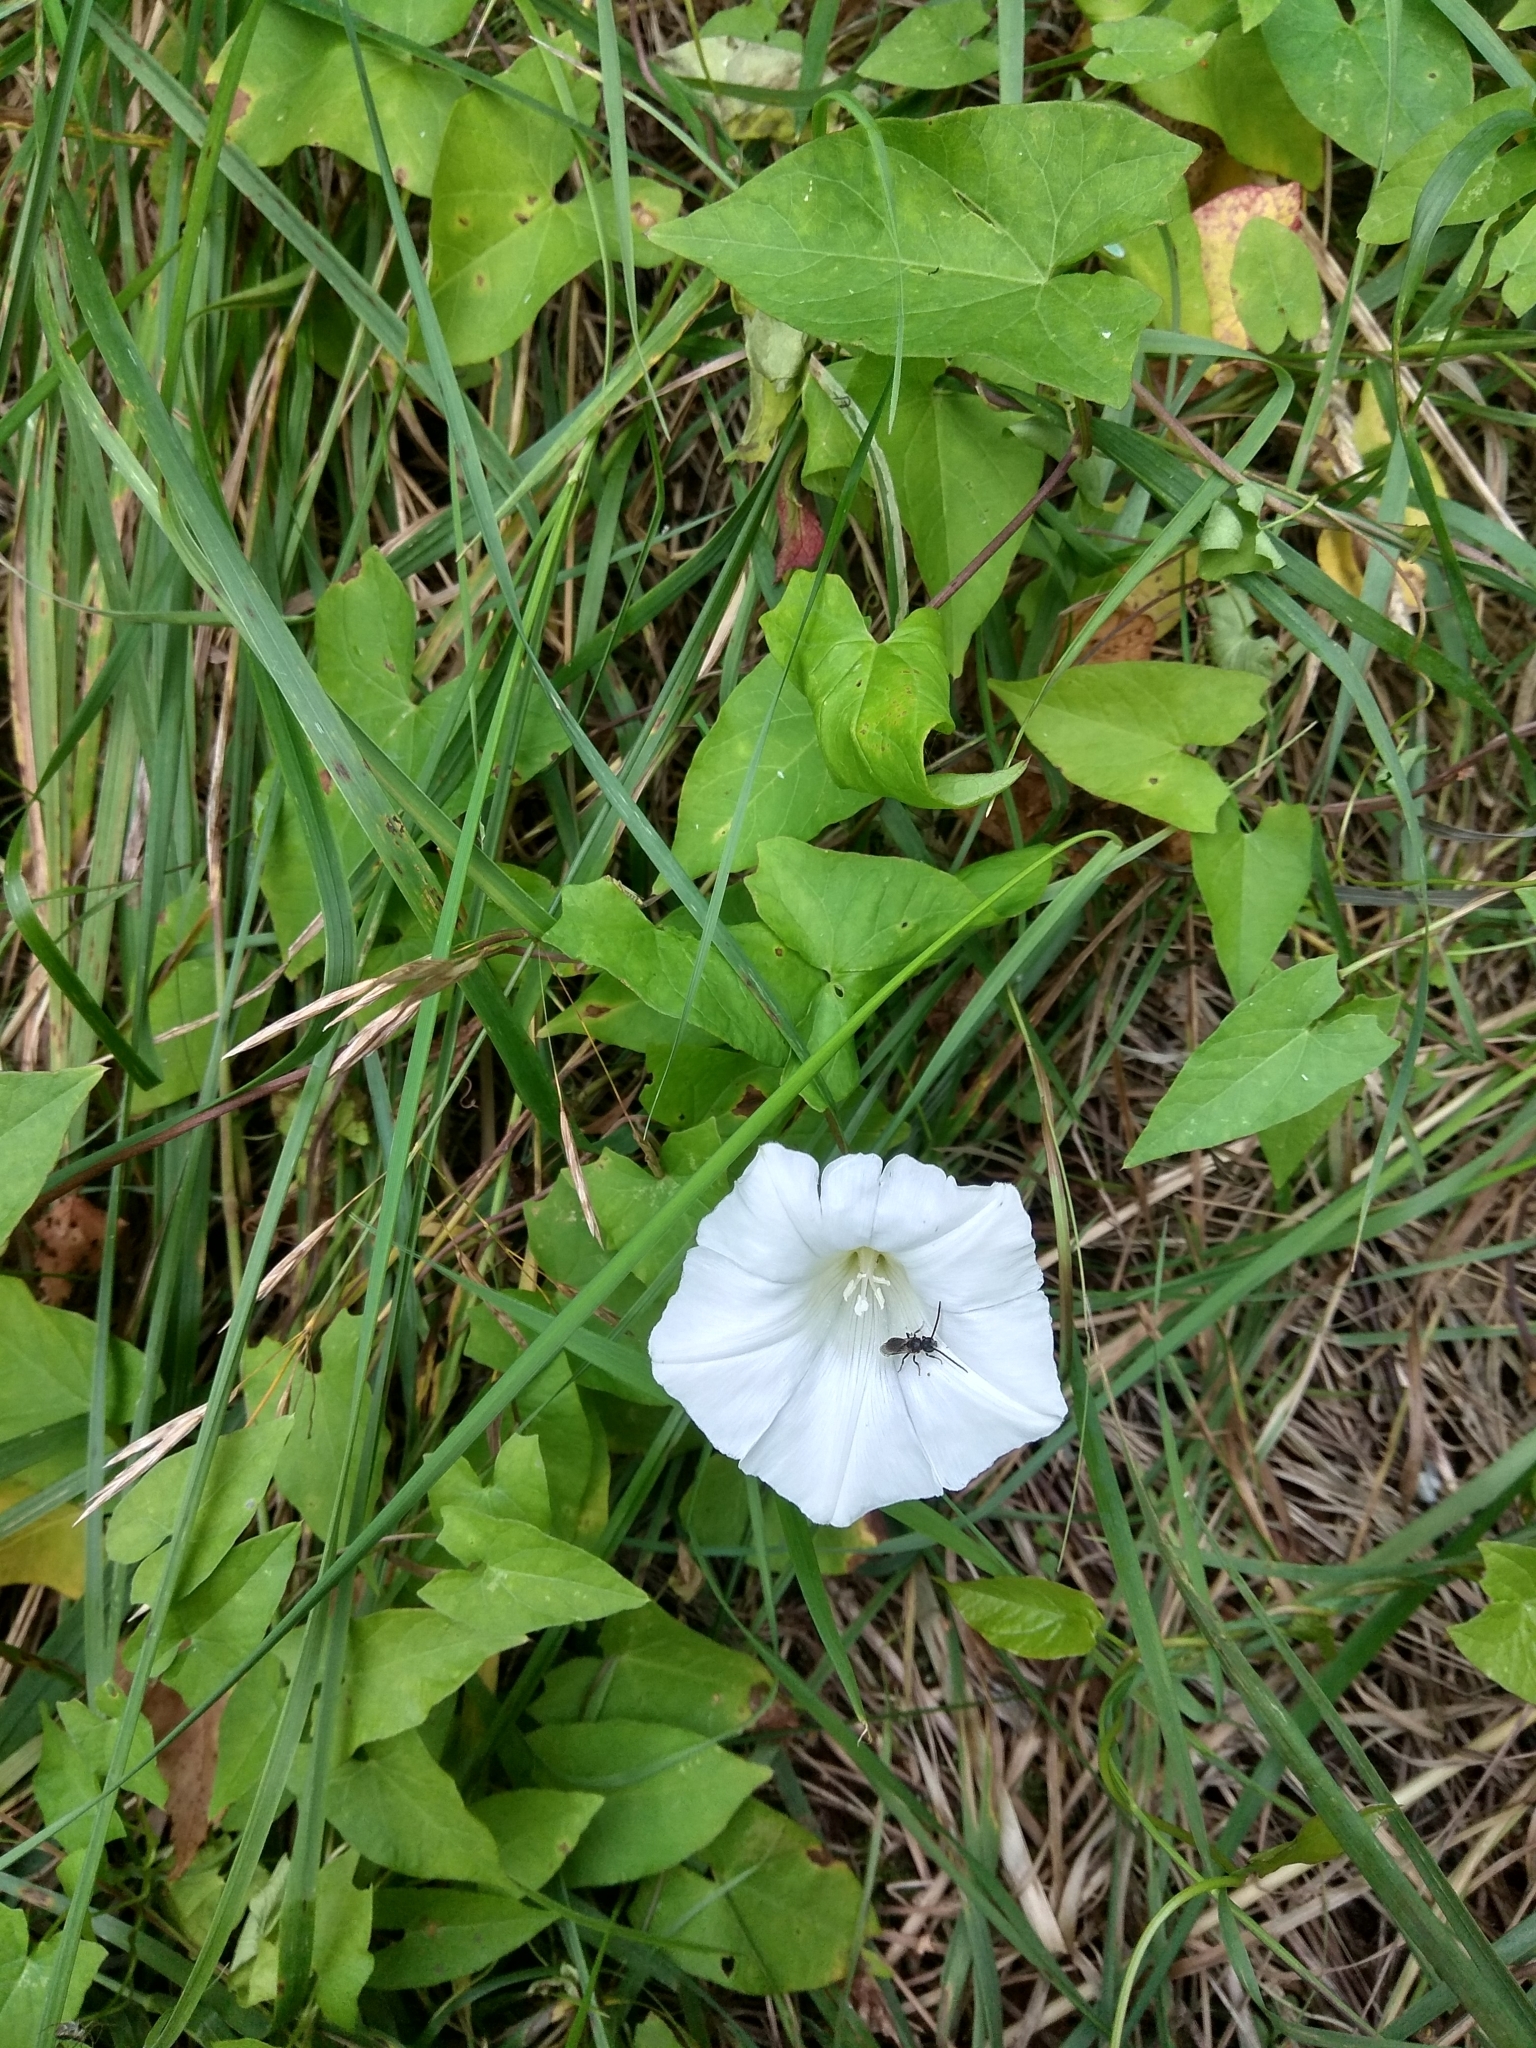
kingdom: Plantae
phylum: Tracheophyta
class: Magnoliopsida
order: Solanales
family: Convolvulaceae
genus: Calystegia
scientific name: Calystegia sepium
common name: Hedge bindweed
